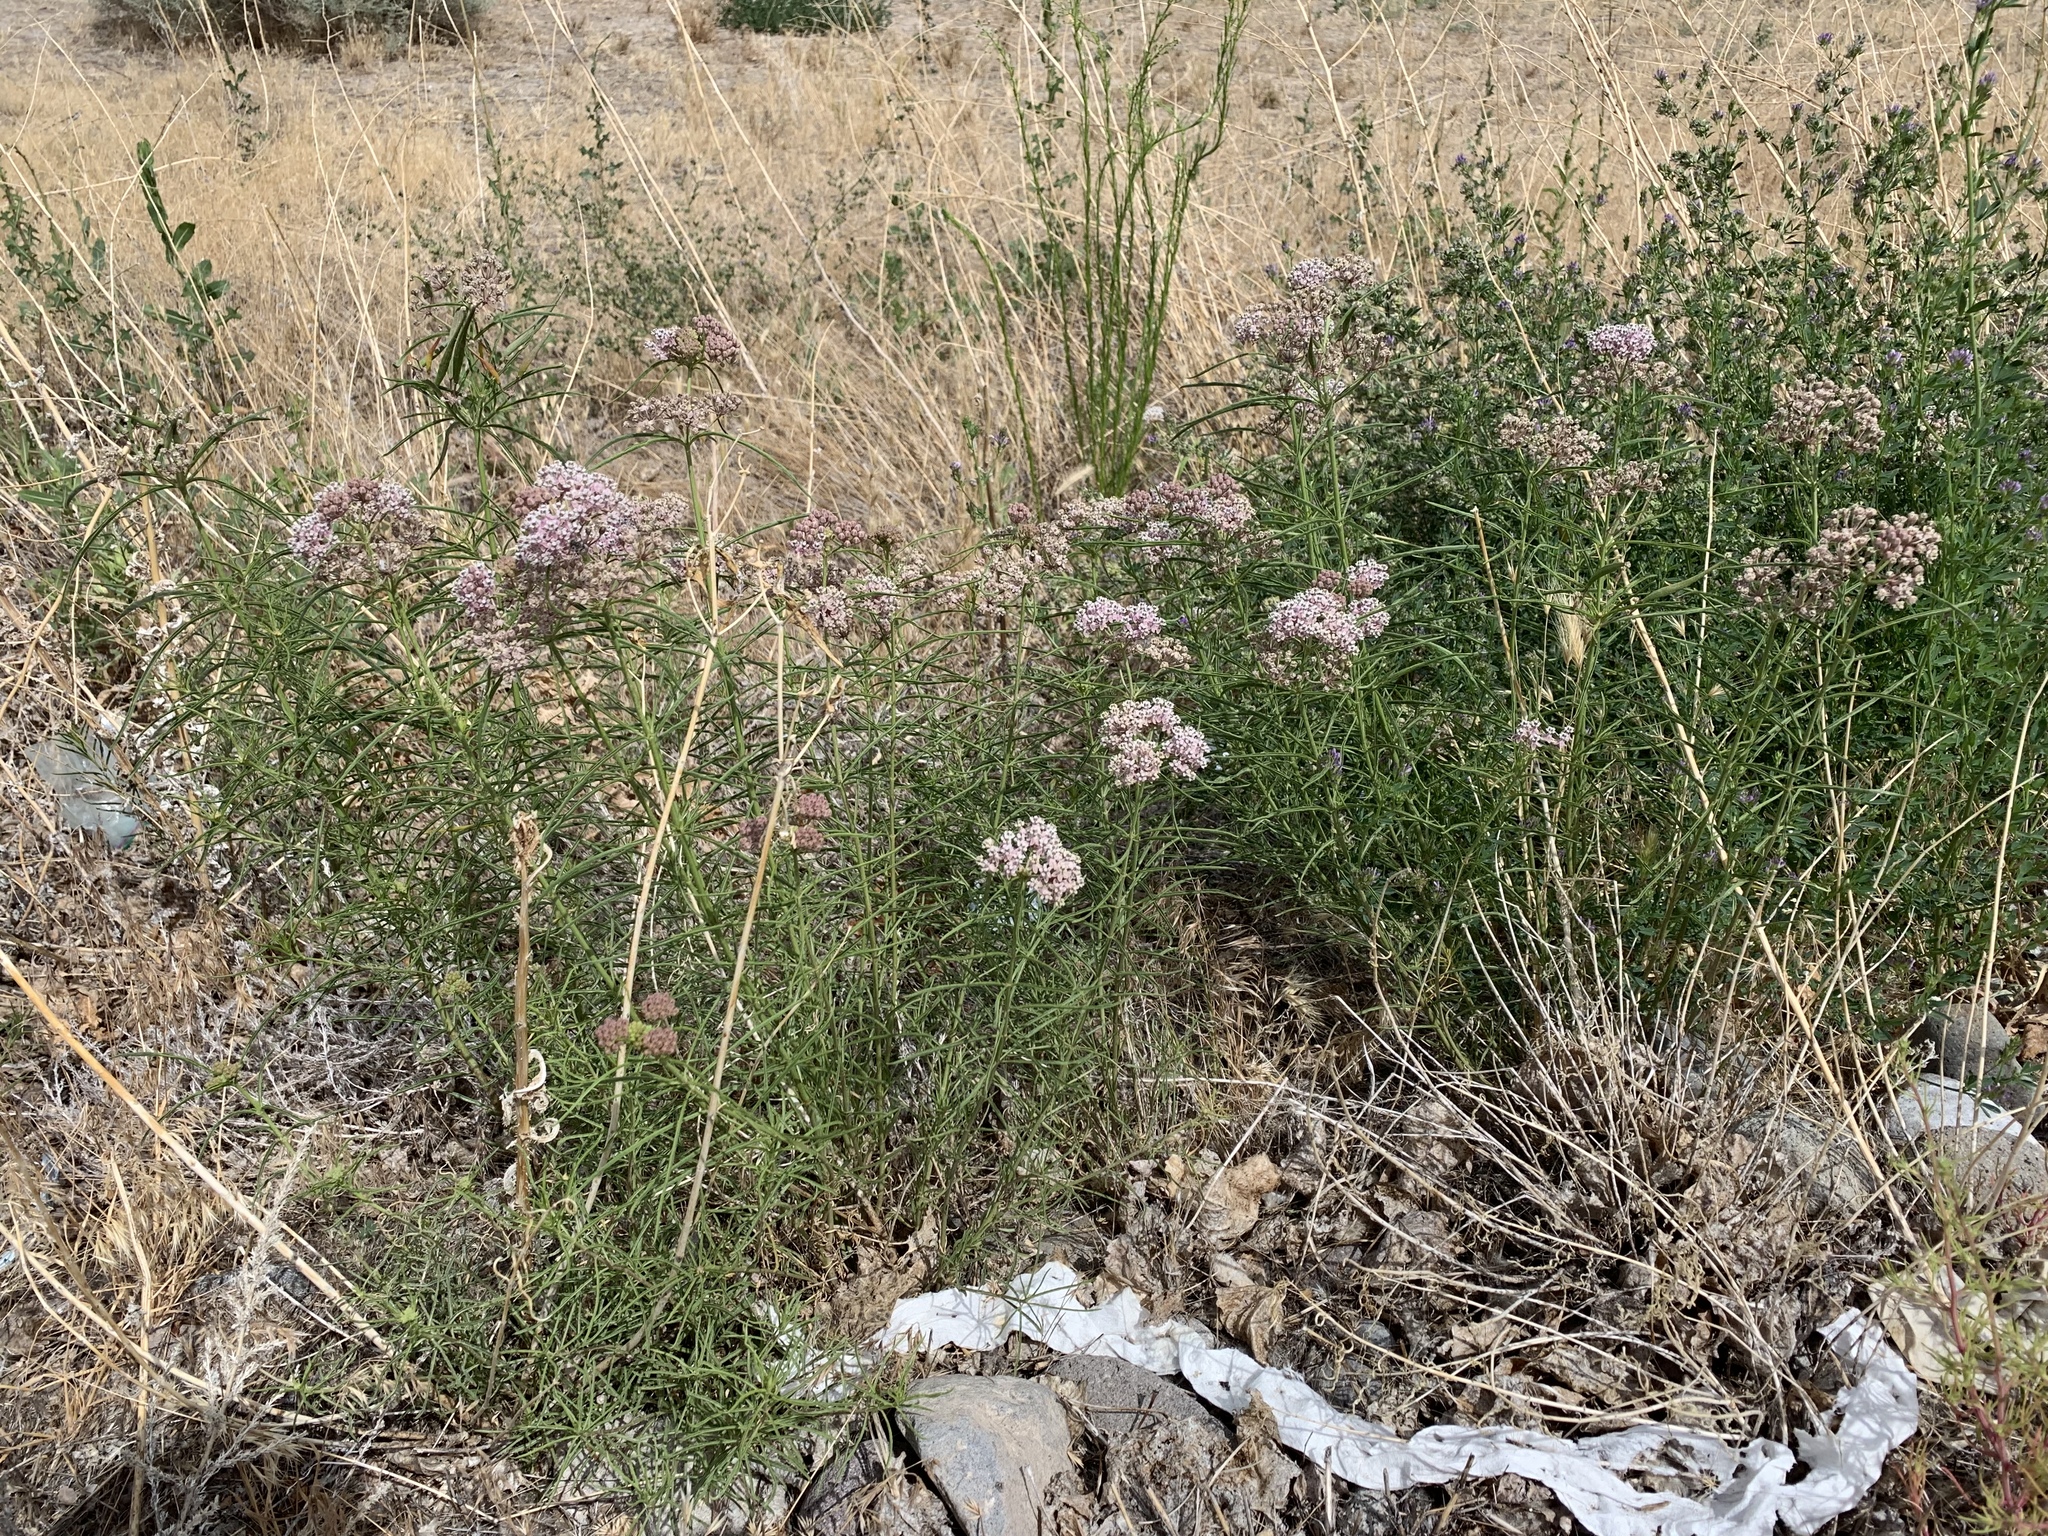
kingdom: Plantae
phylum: Tracheophyta
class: Magnoliopsida
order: Gentianales
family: Apocynaceae
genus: Asclepias
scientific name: Asclepias fascicularis
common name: Mexican milkweed
